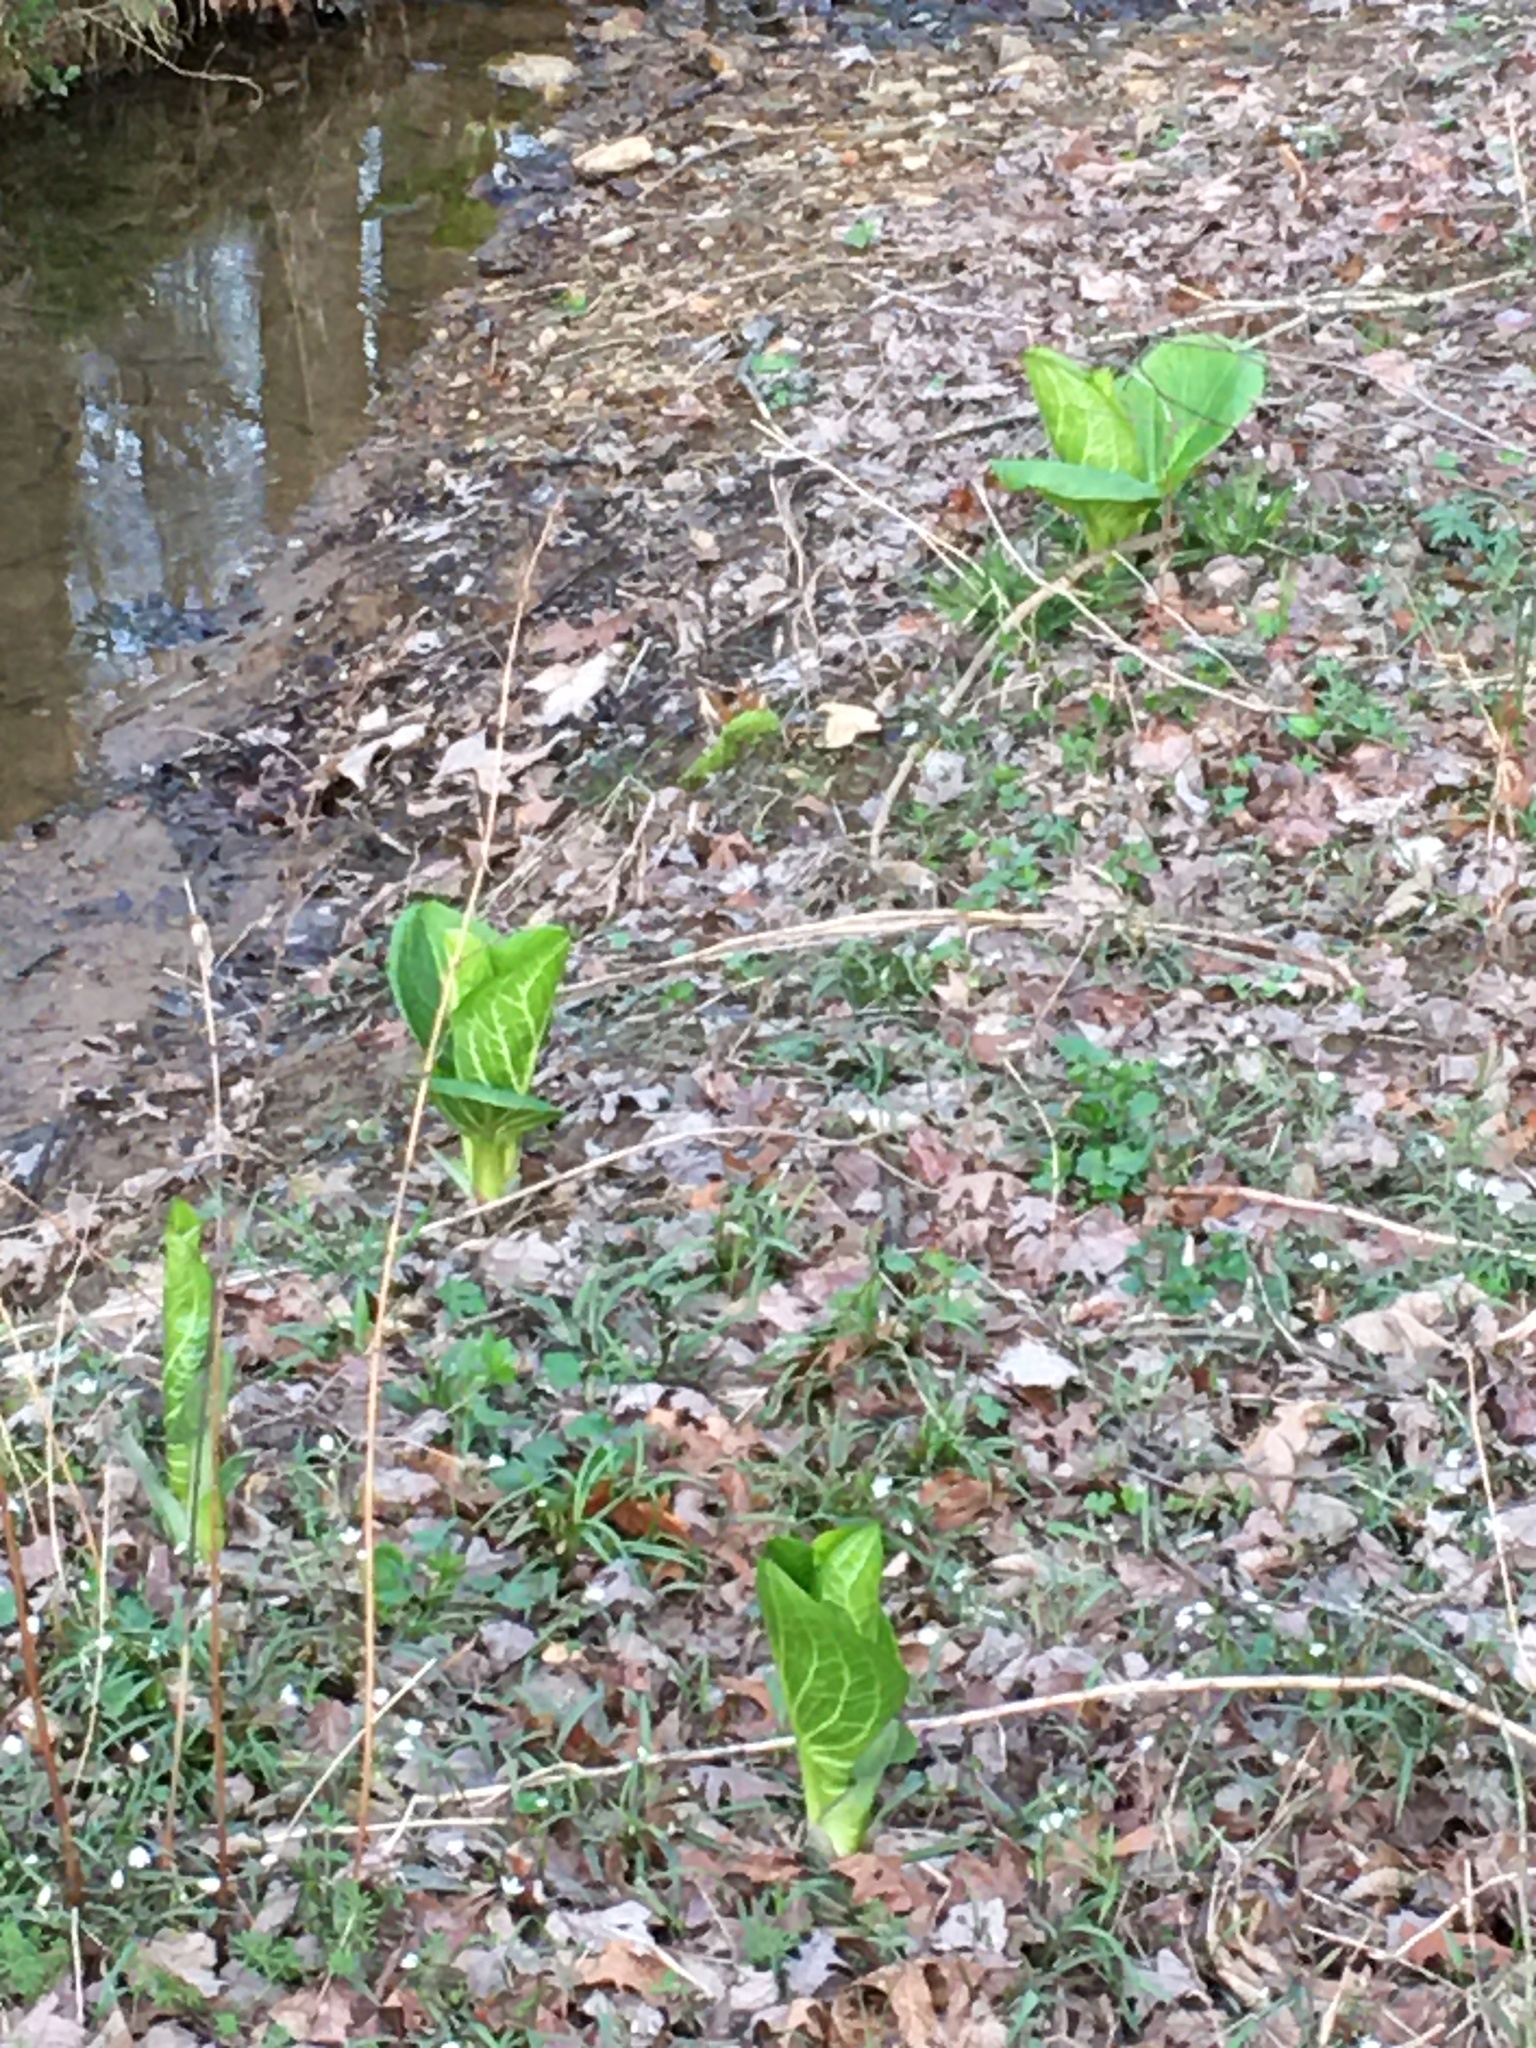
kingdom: Plantae
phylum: Tracheophyta
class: Liliopsida
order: Alismatales
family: Araceae
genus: Symplocarpus
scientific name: Symplocarpus foetidus
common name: Eastern skunk cabbage
